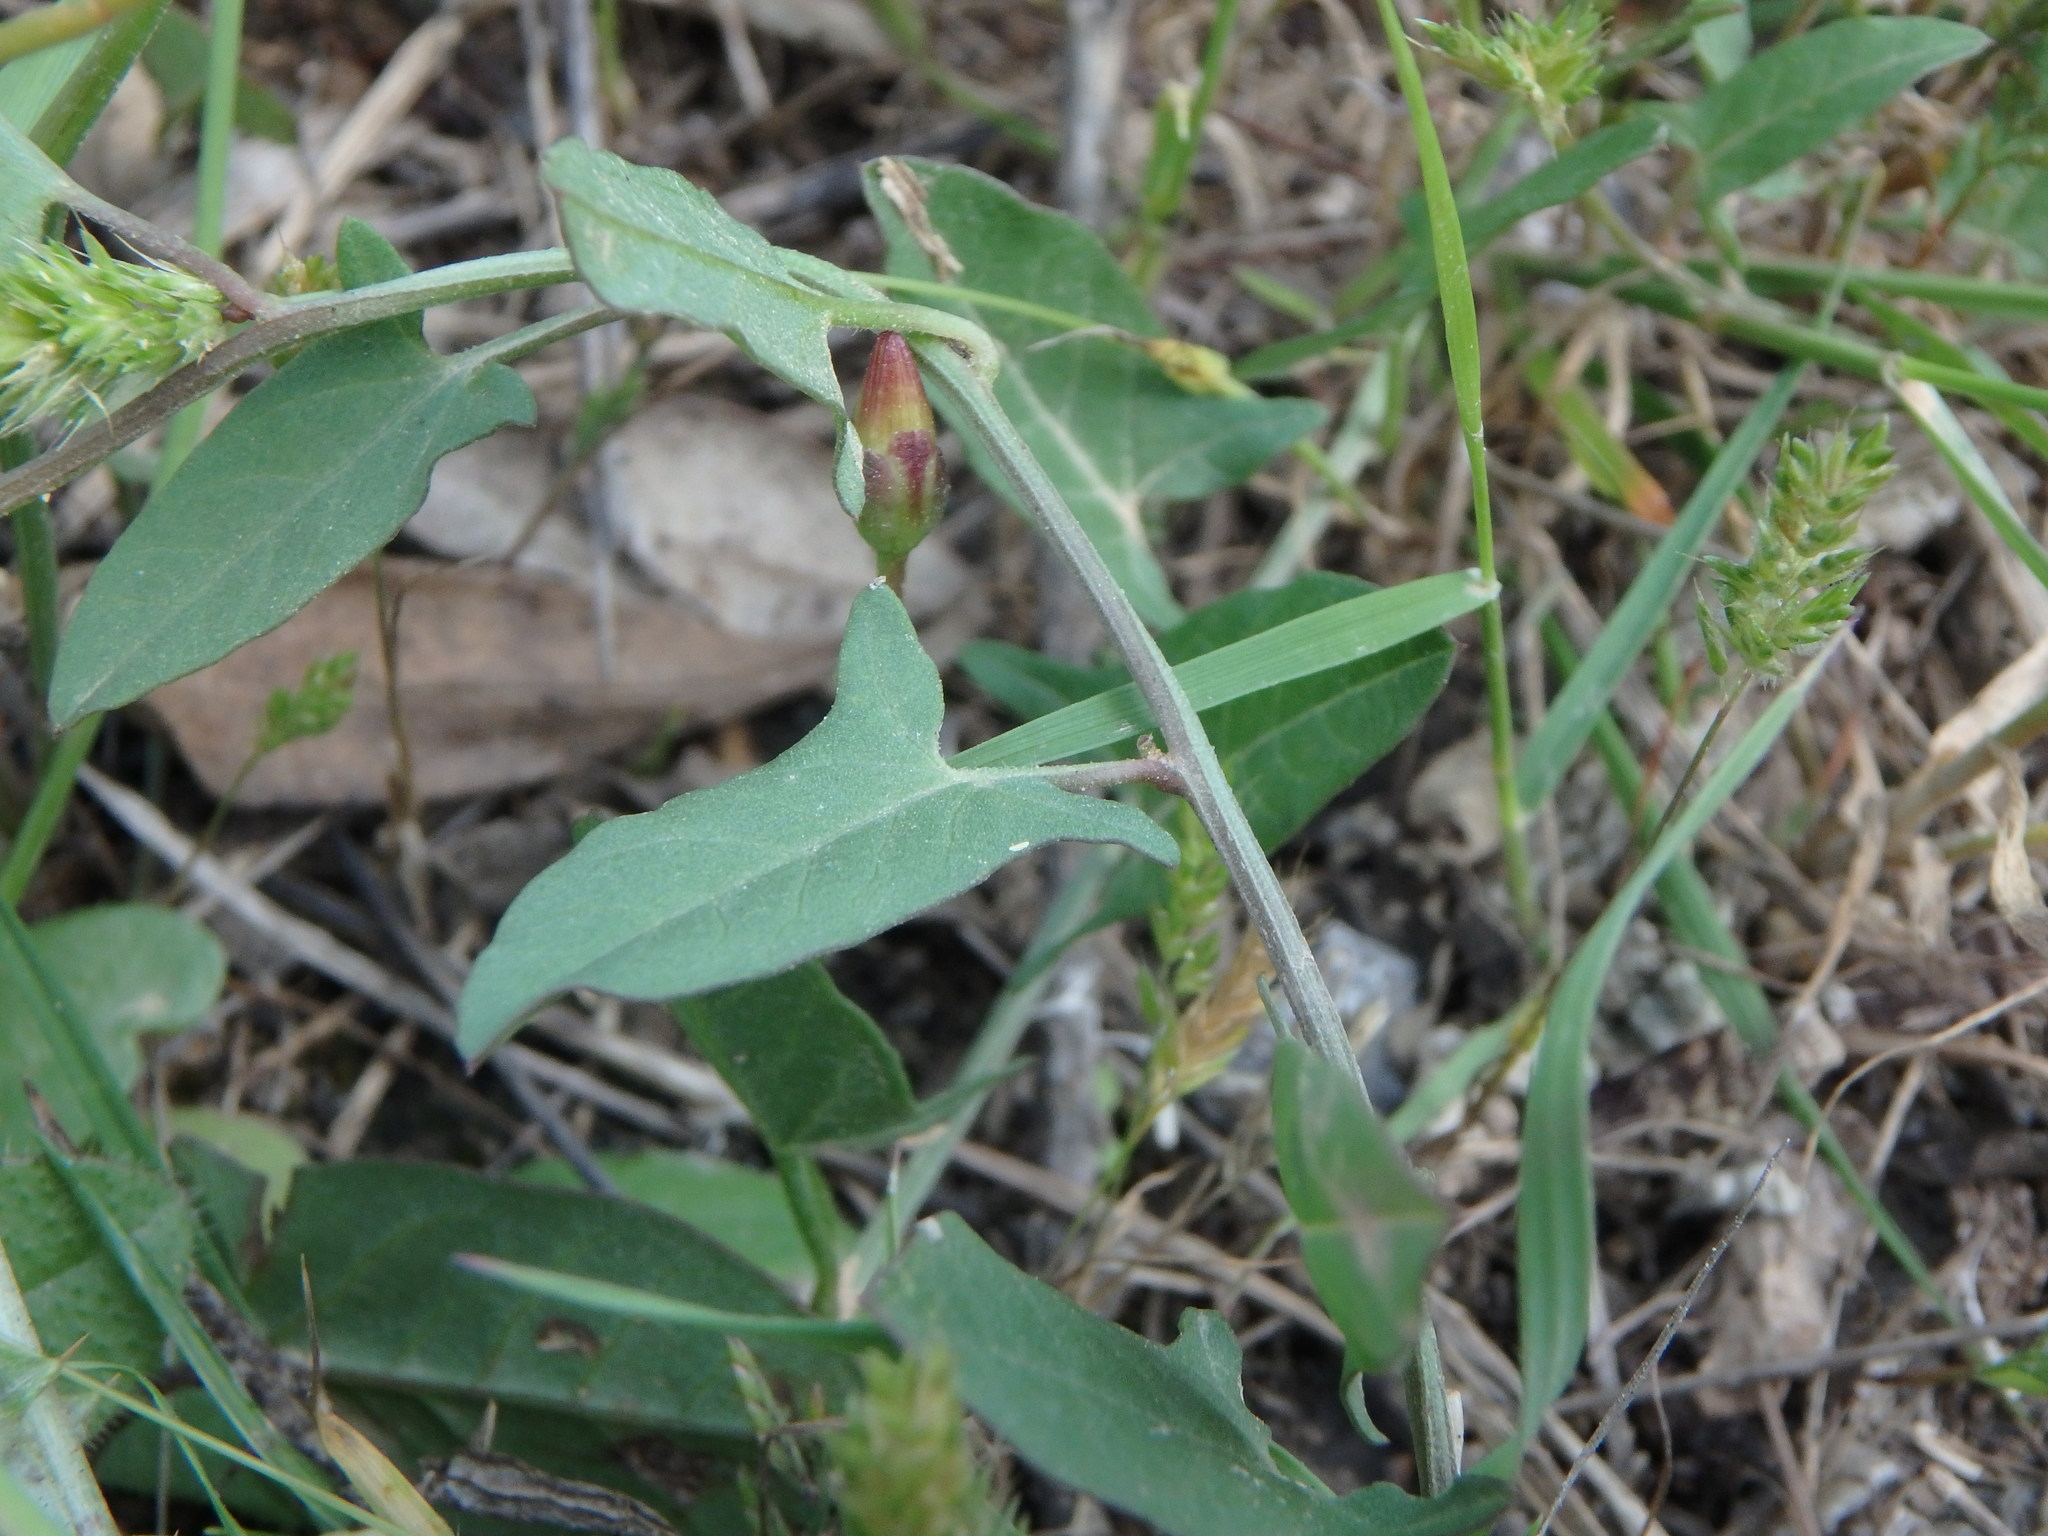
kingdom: Plantae
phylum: Tracheophyta
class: Magnoliopsida
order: Solanales
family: Convolvulaceae
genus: Convolvulus
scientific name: Convolvulus arvensis
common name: Field bindweed
